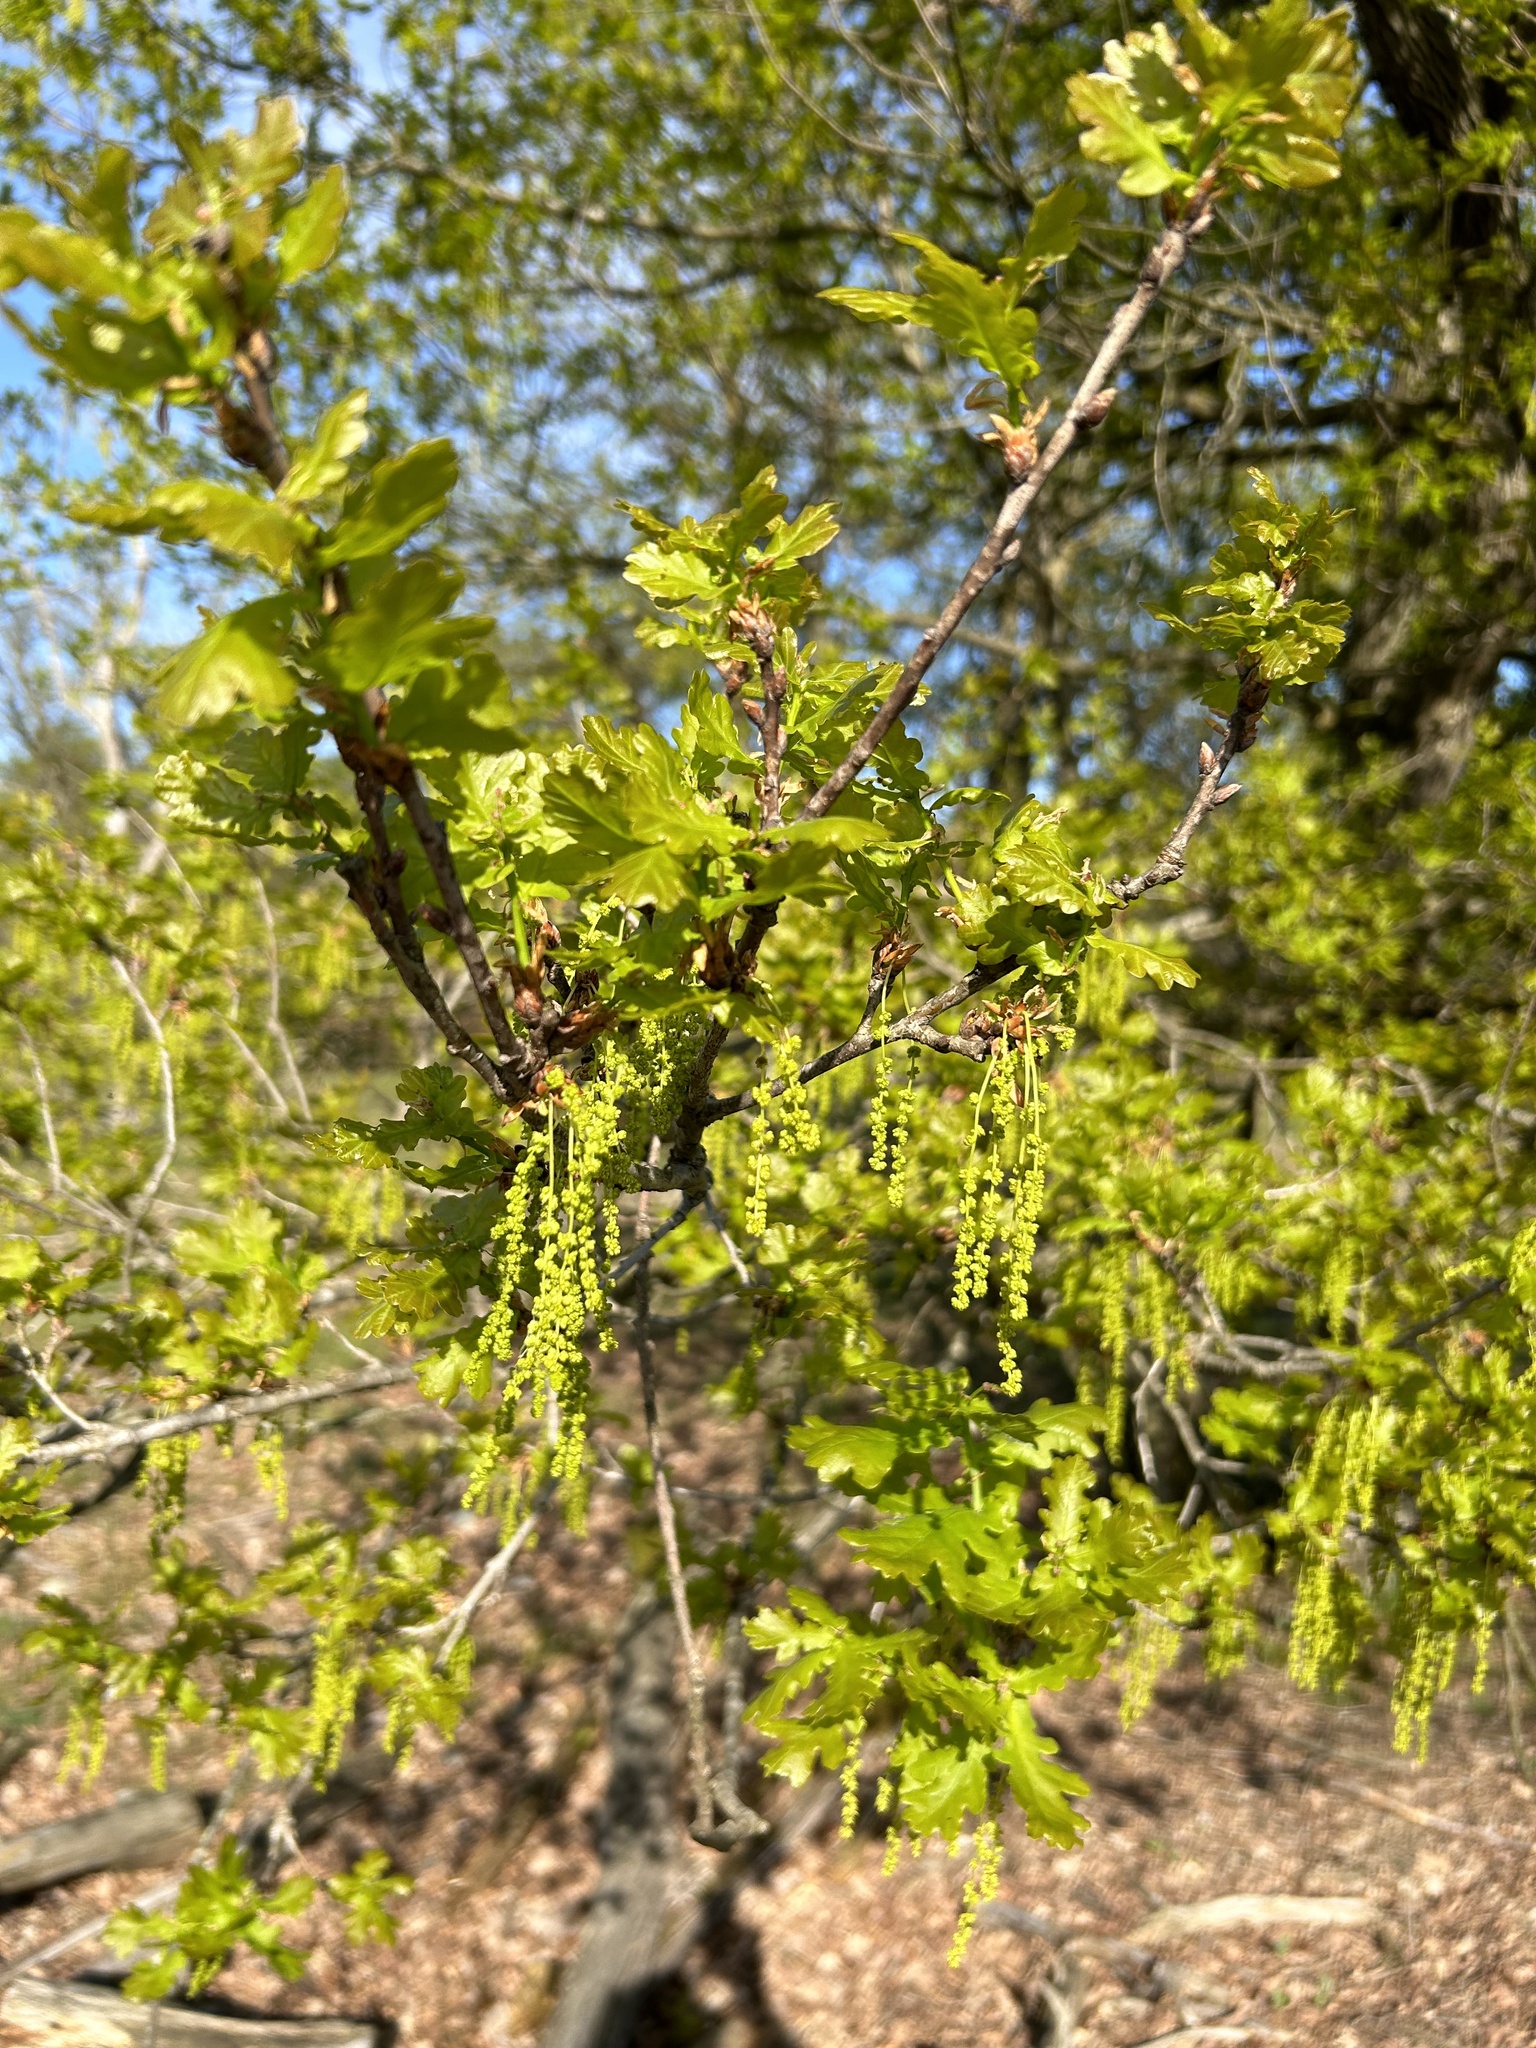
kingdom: Plantae
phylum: Tracheophyta
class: Magnoliopsida
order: Fagales
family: Fagaceae
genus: Quercus
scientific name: Quercus robur
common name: Pedunculate oak
